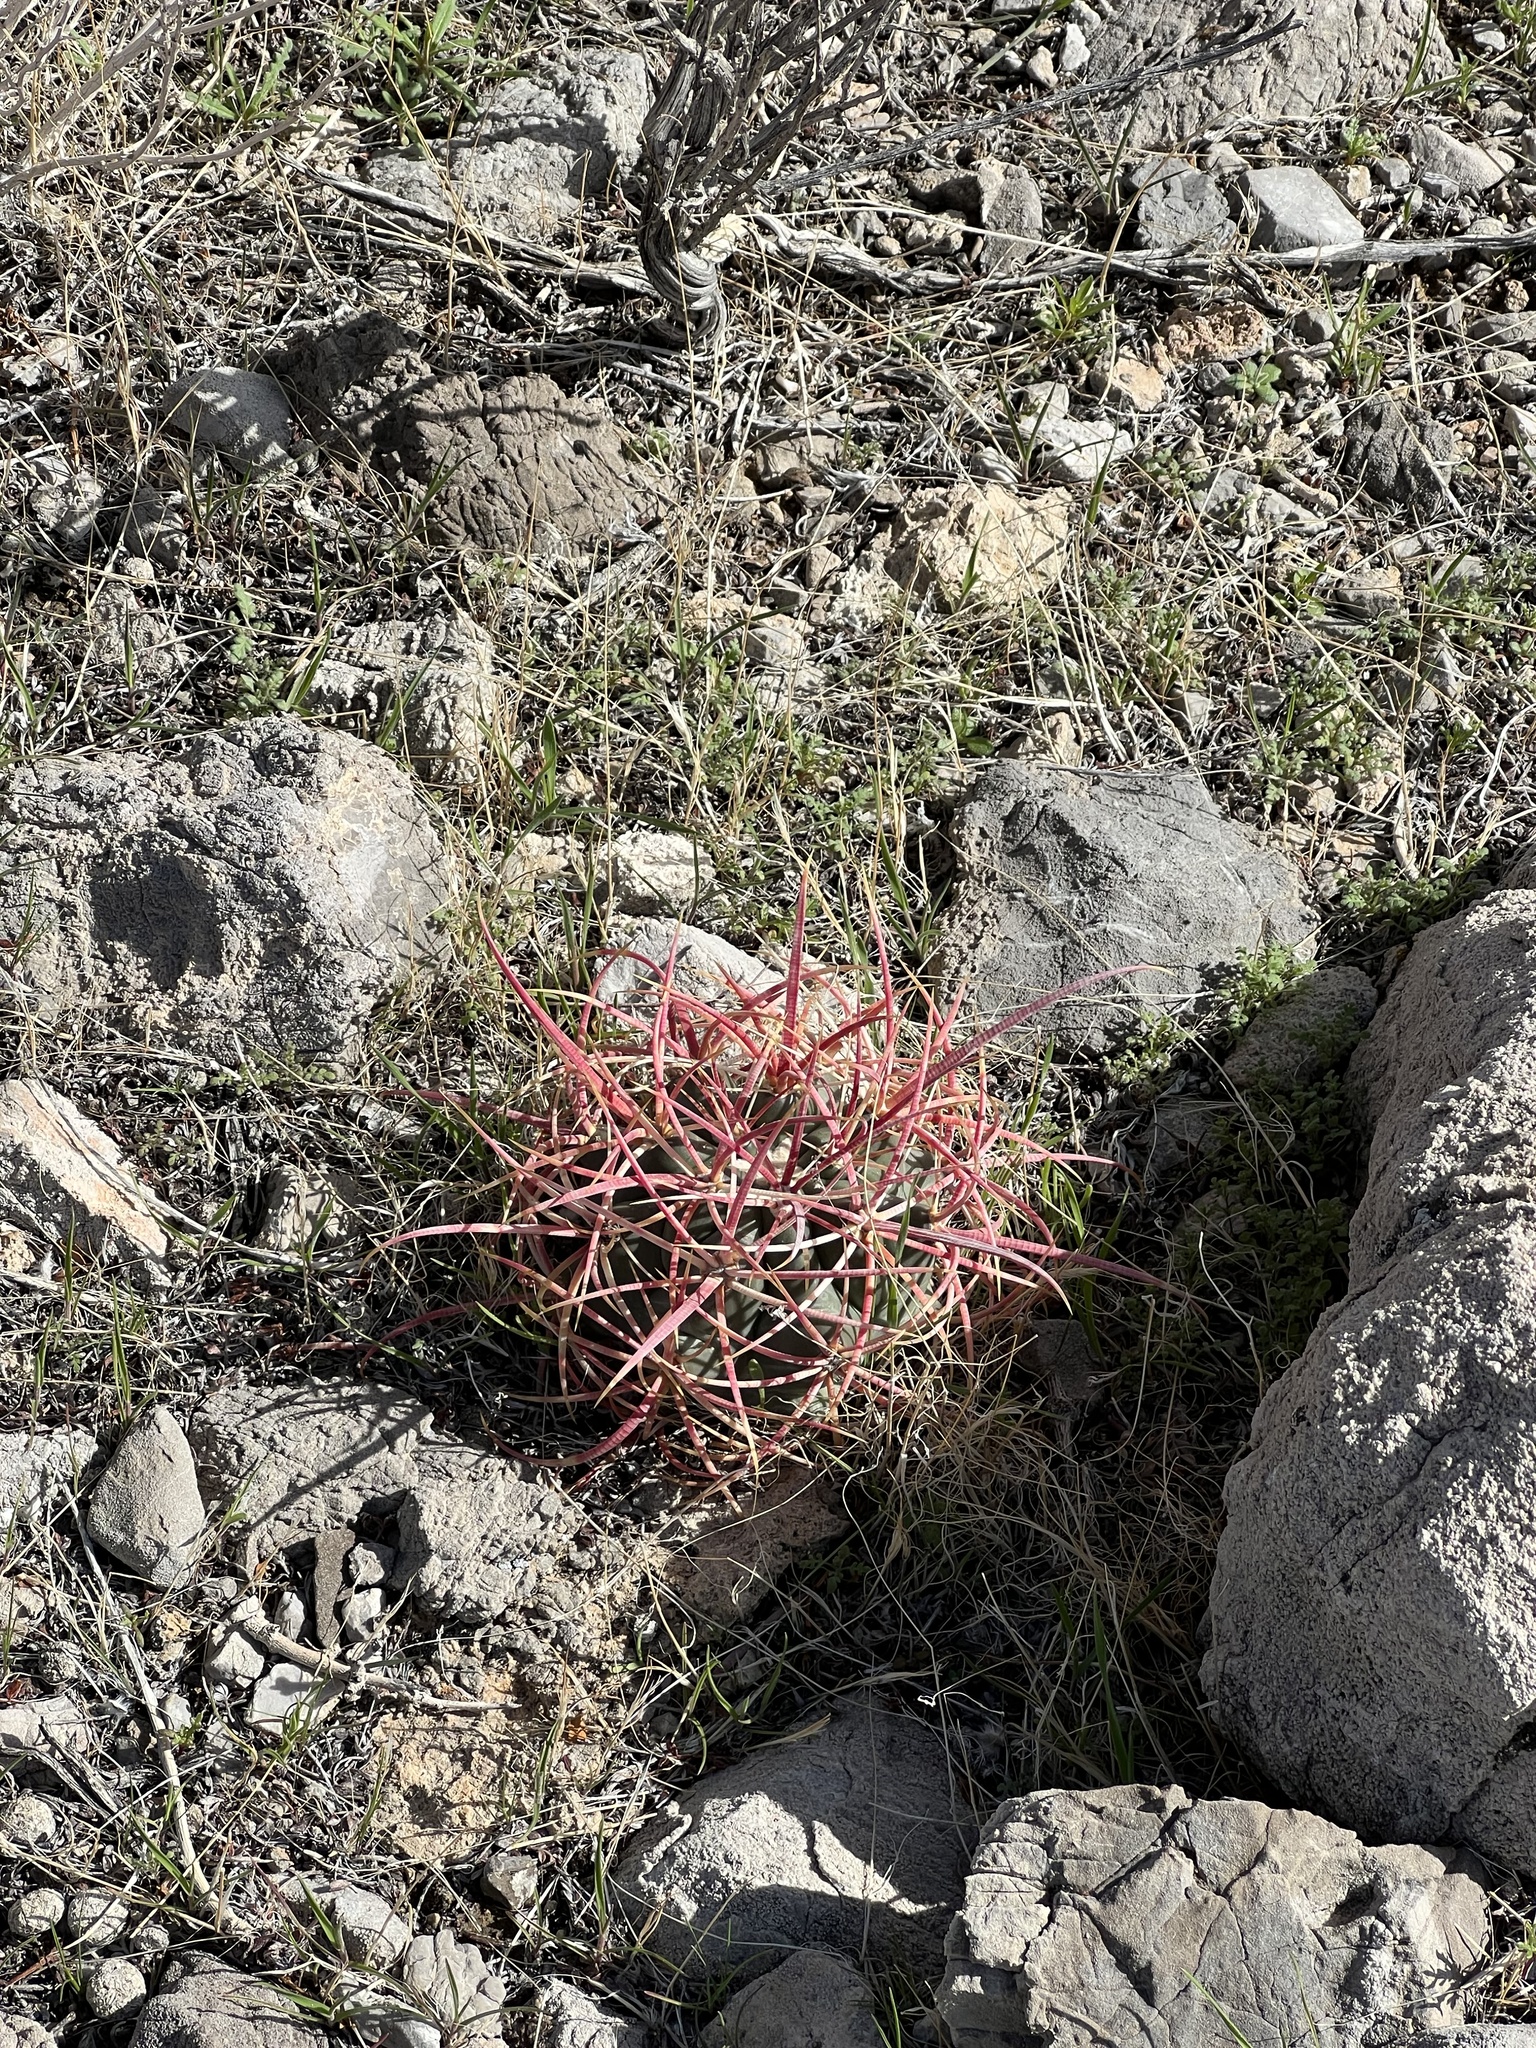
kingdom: Plantae
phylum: Tracheophyta
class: Magnoliopsida
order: Caryophyllales
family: Cactaceae
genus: Ferocactus
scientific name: Ferocactus cylindraceus
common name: California barrel cactus
